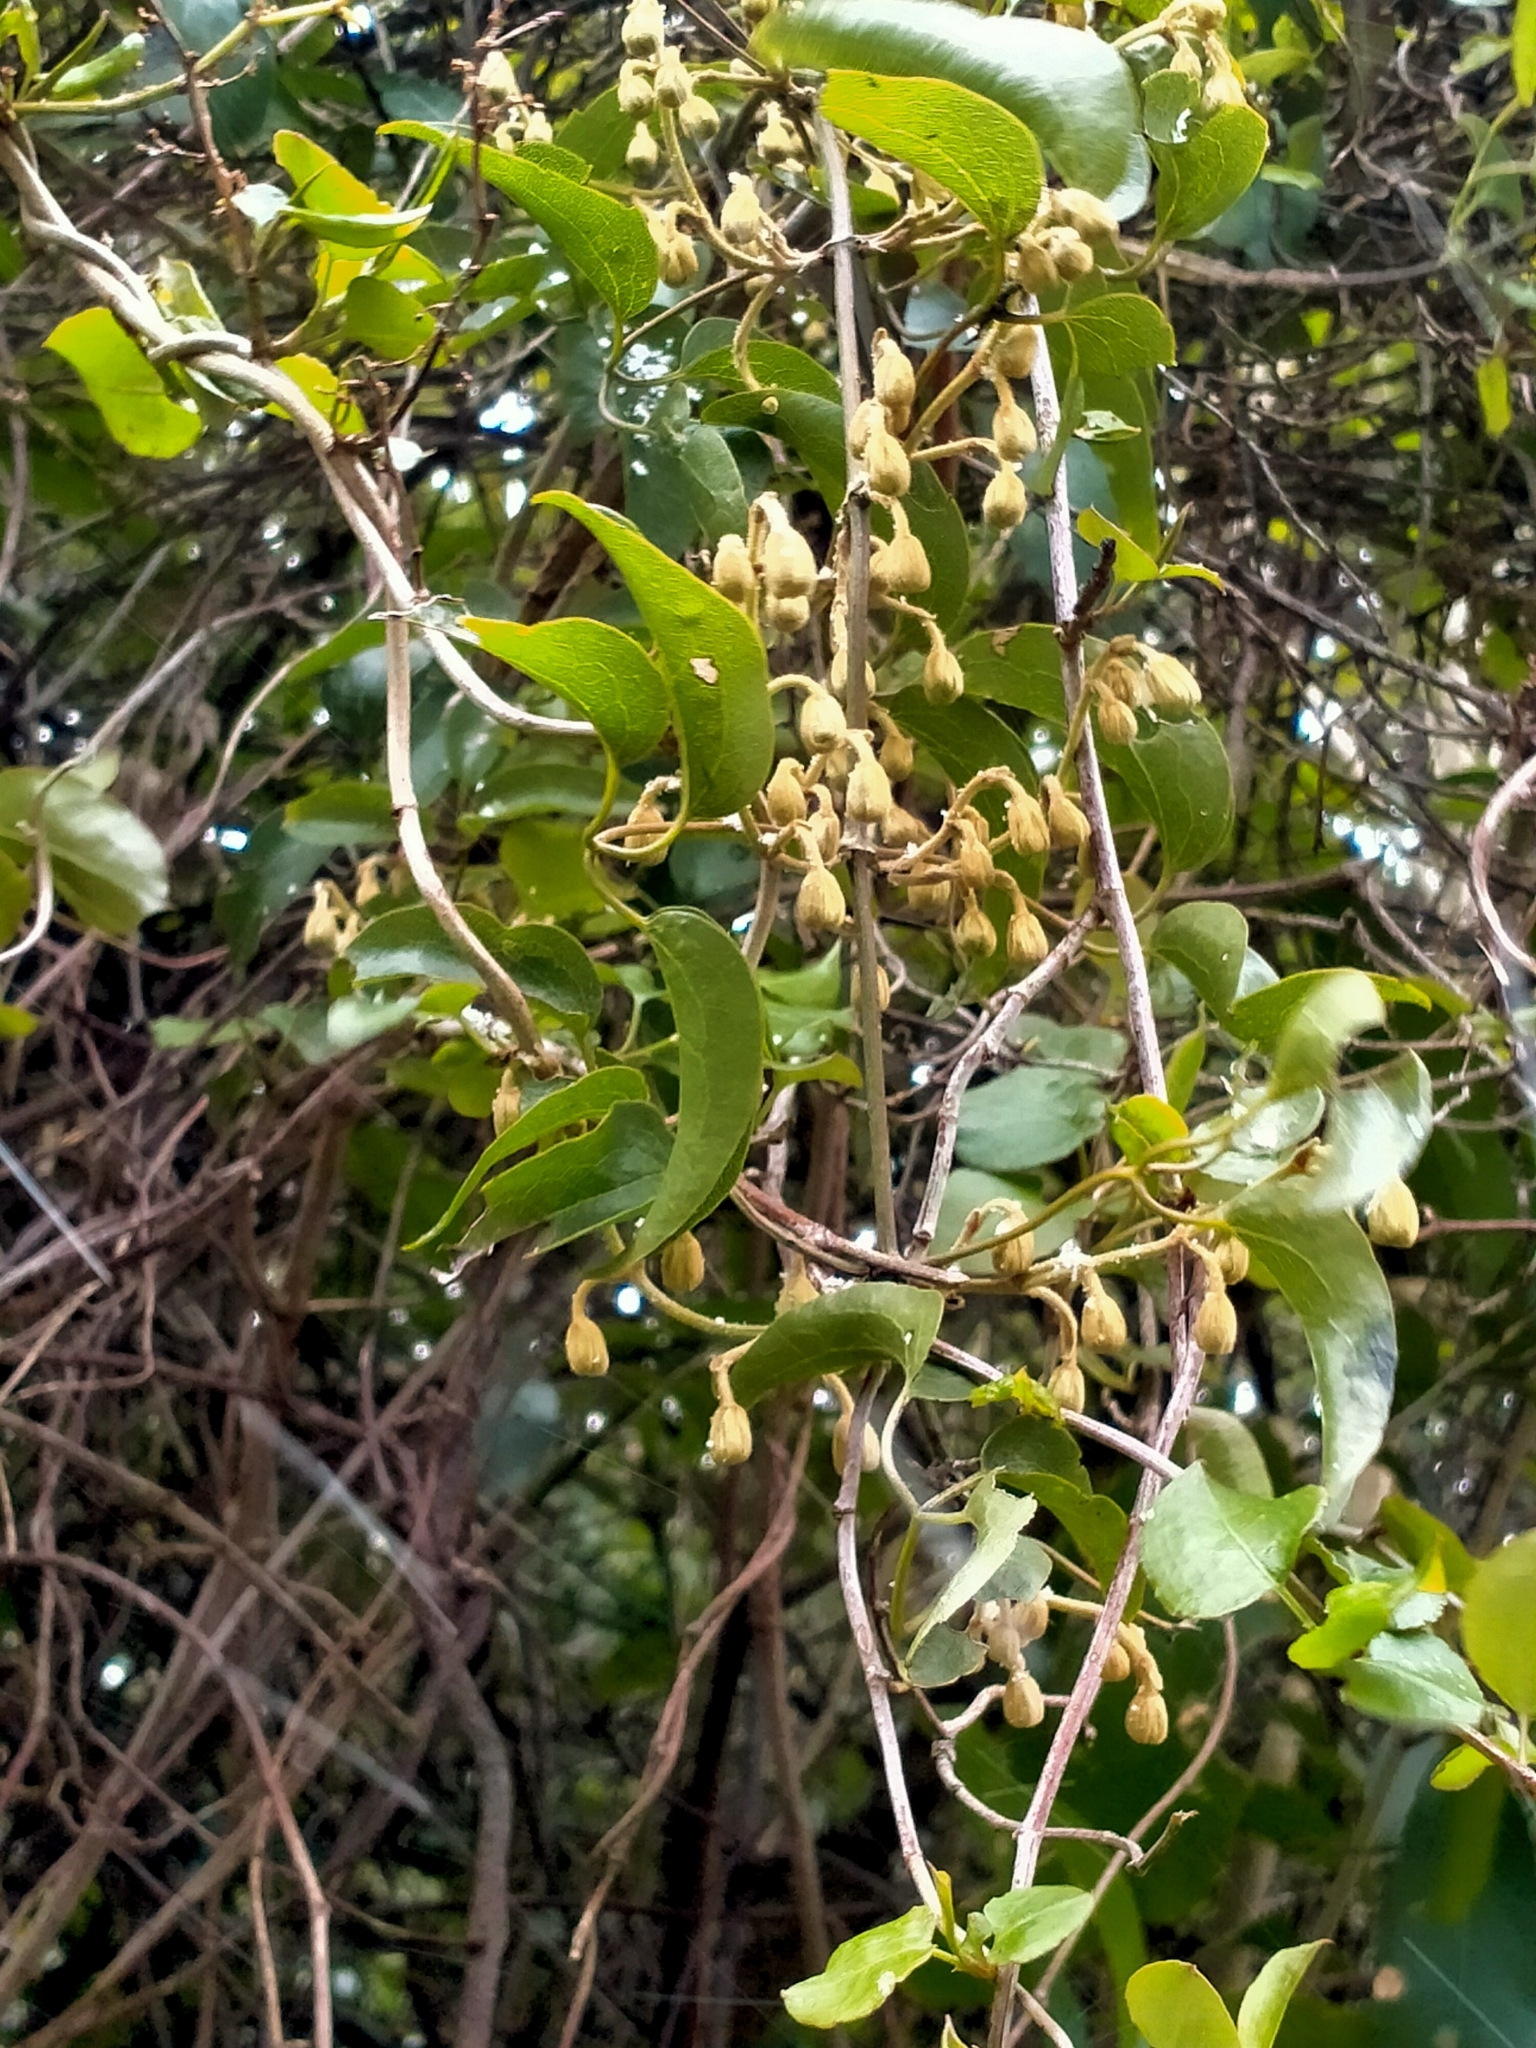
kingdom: Plantae
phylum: Tracheophyta
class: Magnoliopsida
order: Ranunculales
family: Ranunculaceae
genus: Clematis
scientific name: Clematis foetida
